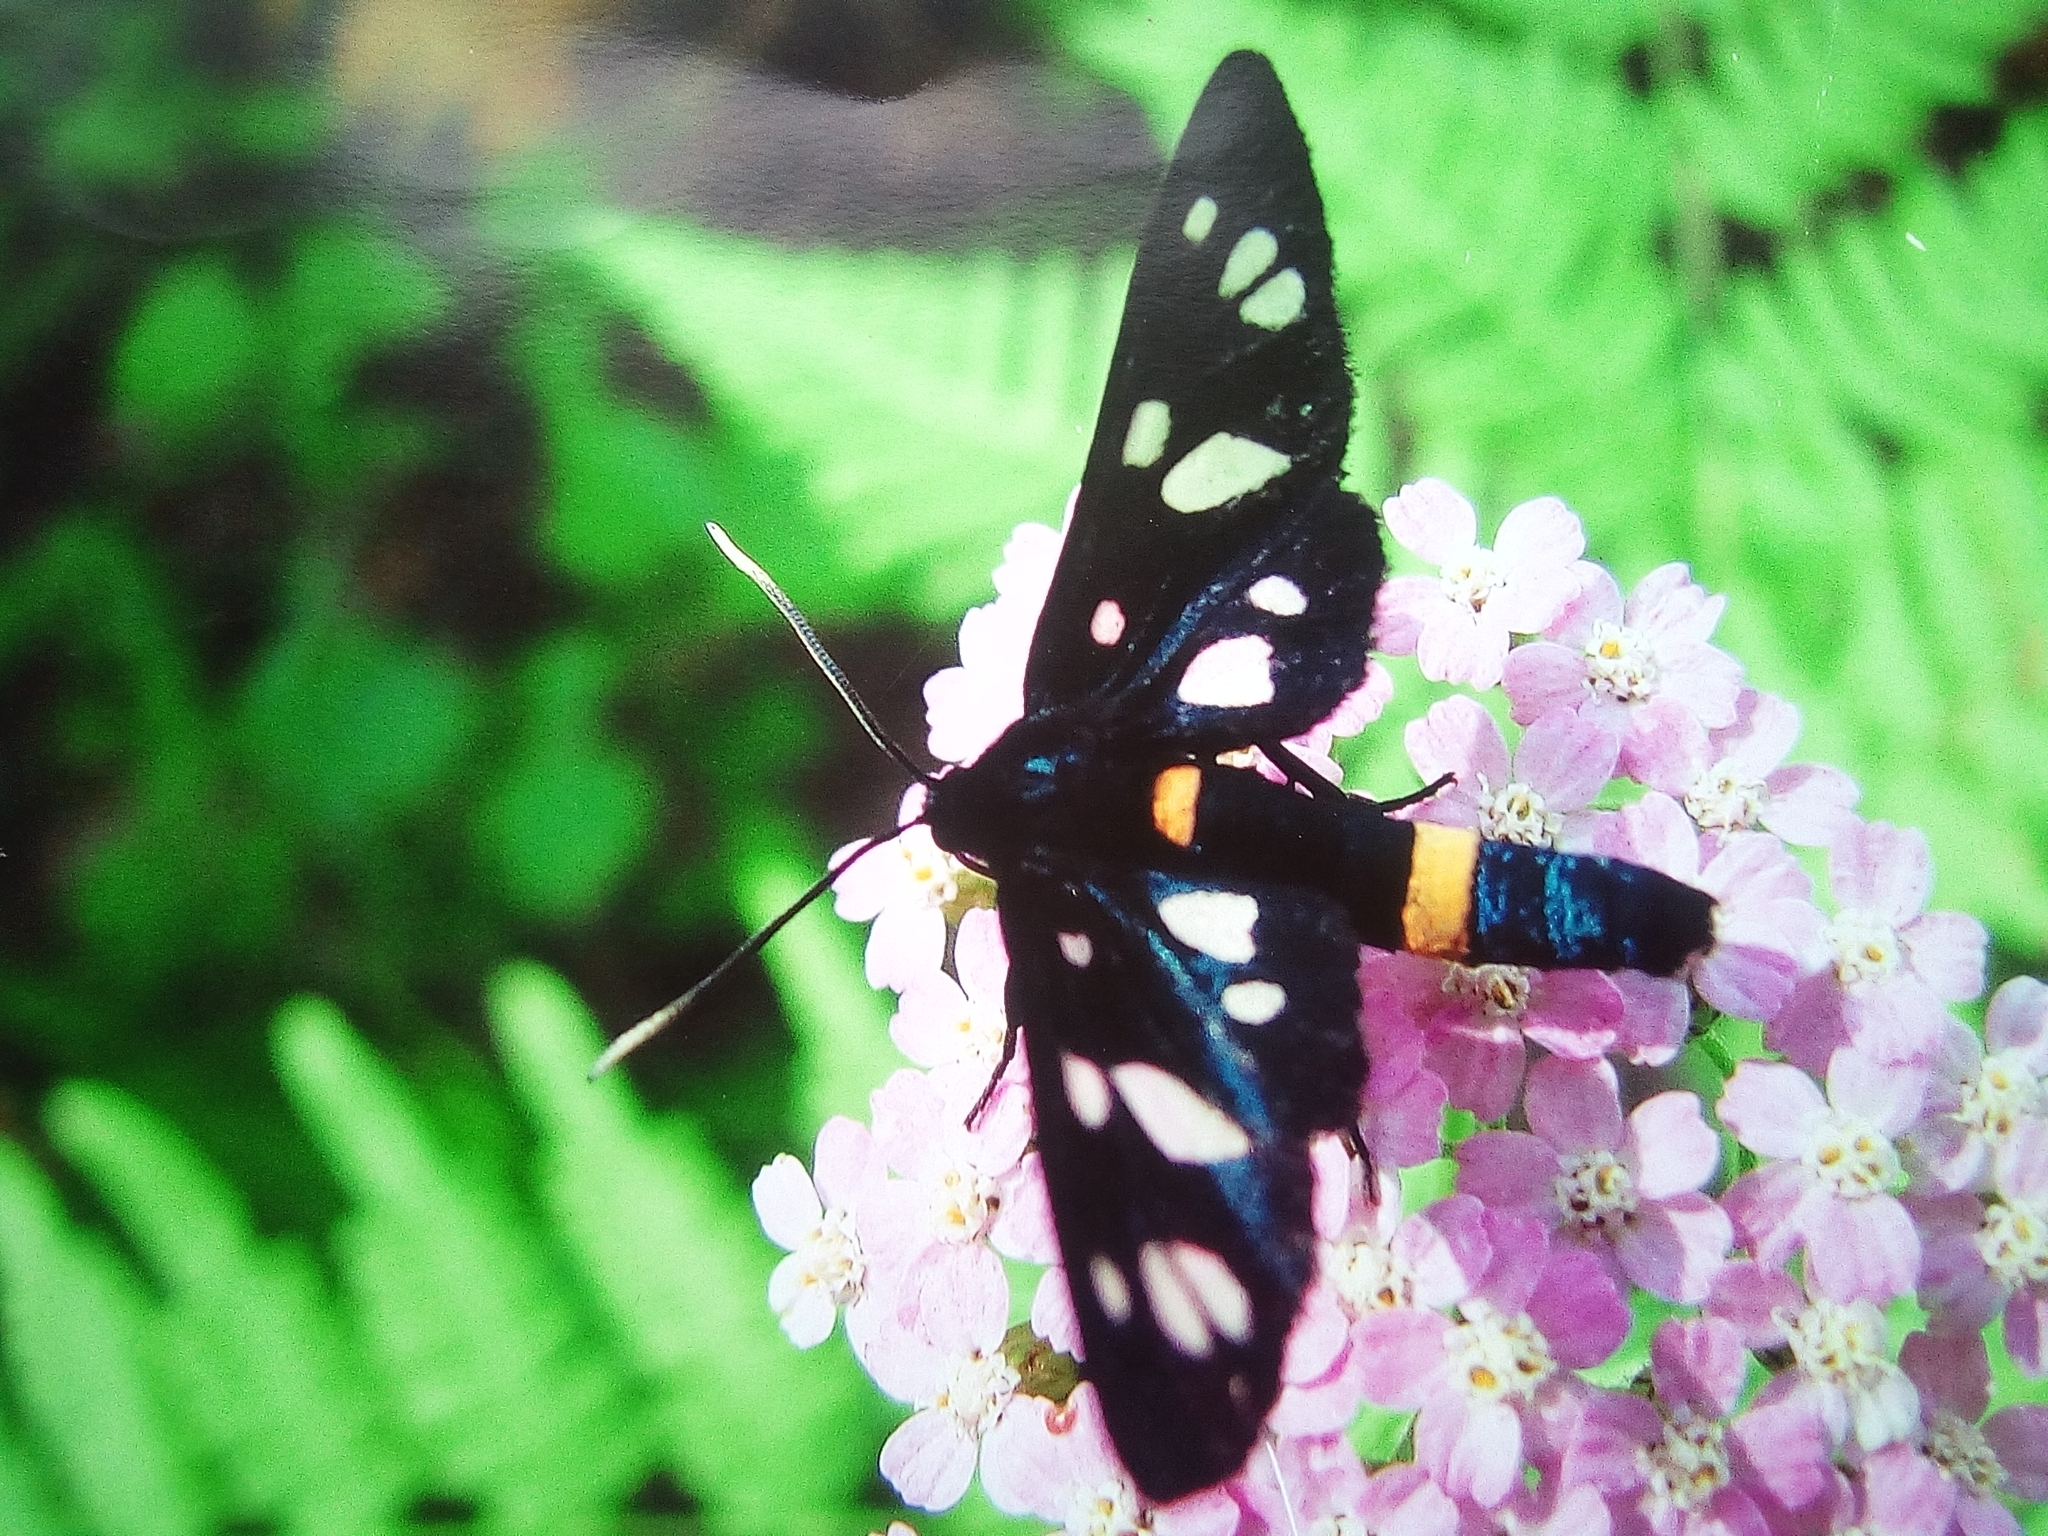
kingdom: Animalia
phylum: Arthropoda
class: Insecta
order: Lepidoptera
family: Erebidae
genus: Amata
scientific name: Amata nigricornis
